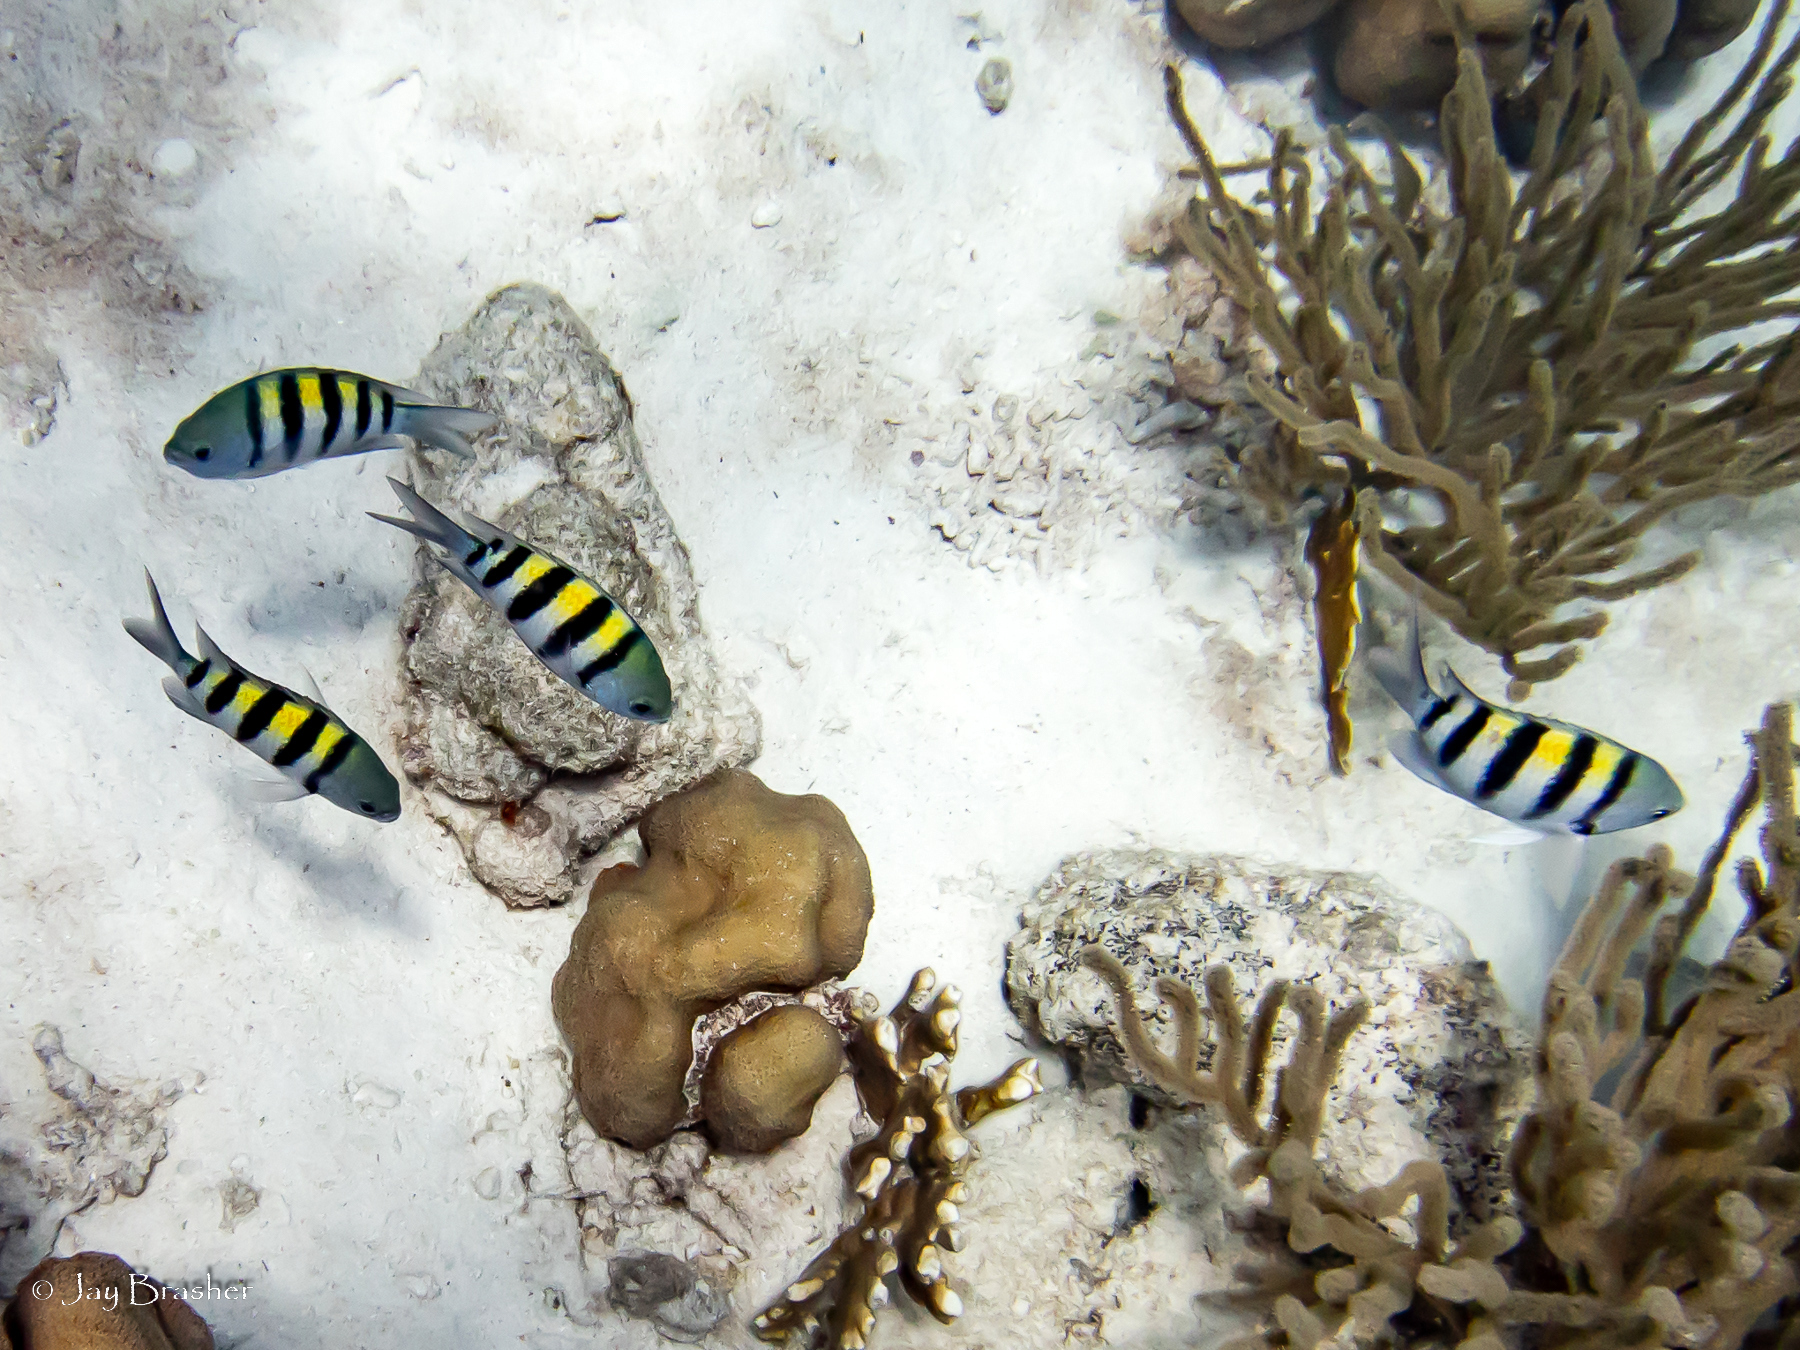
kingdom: Animalia
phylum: Chordata
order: Perciformes
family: Pomacentridae
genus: Abudefduf
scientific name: Abudefduf saxatilis
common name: Sergeant major
